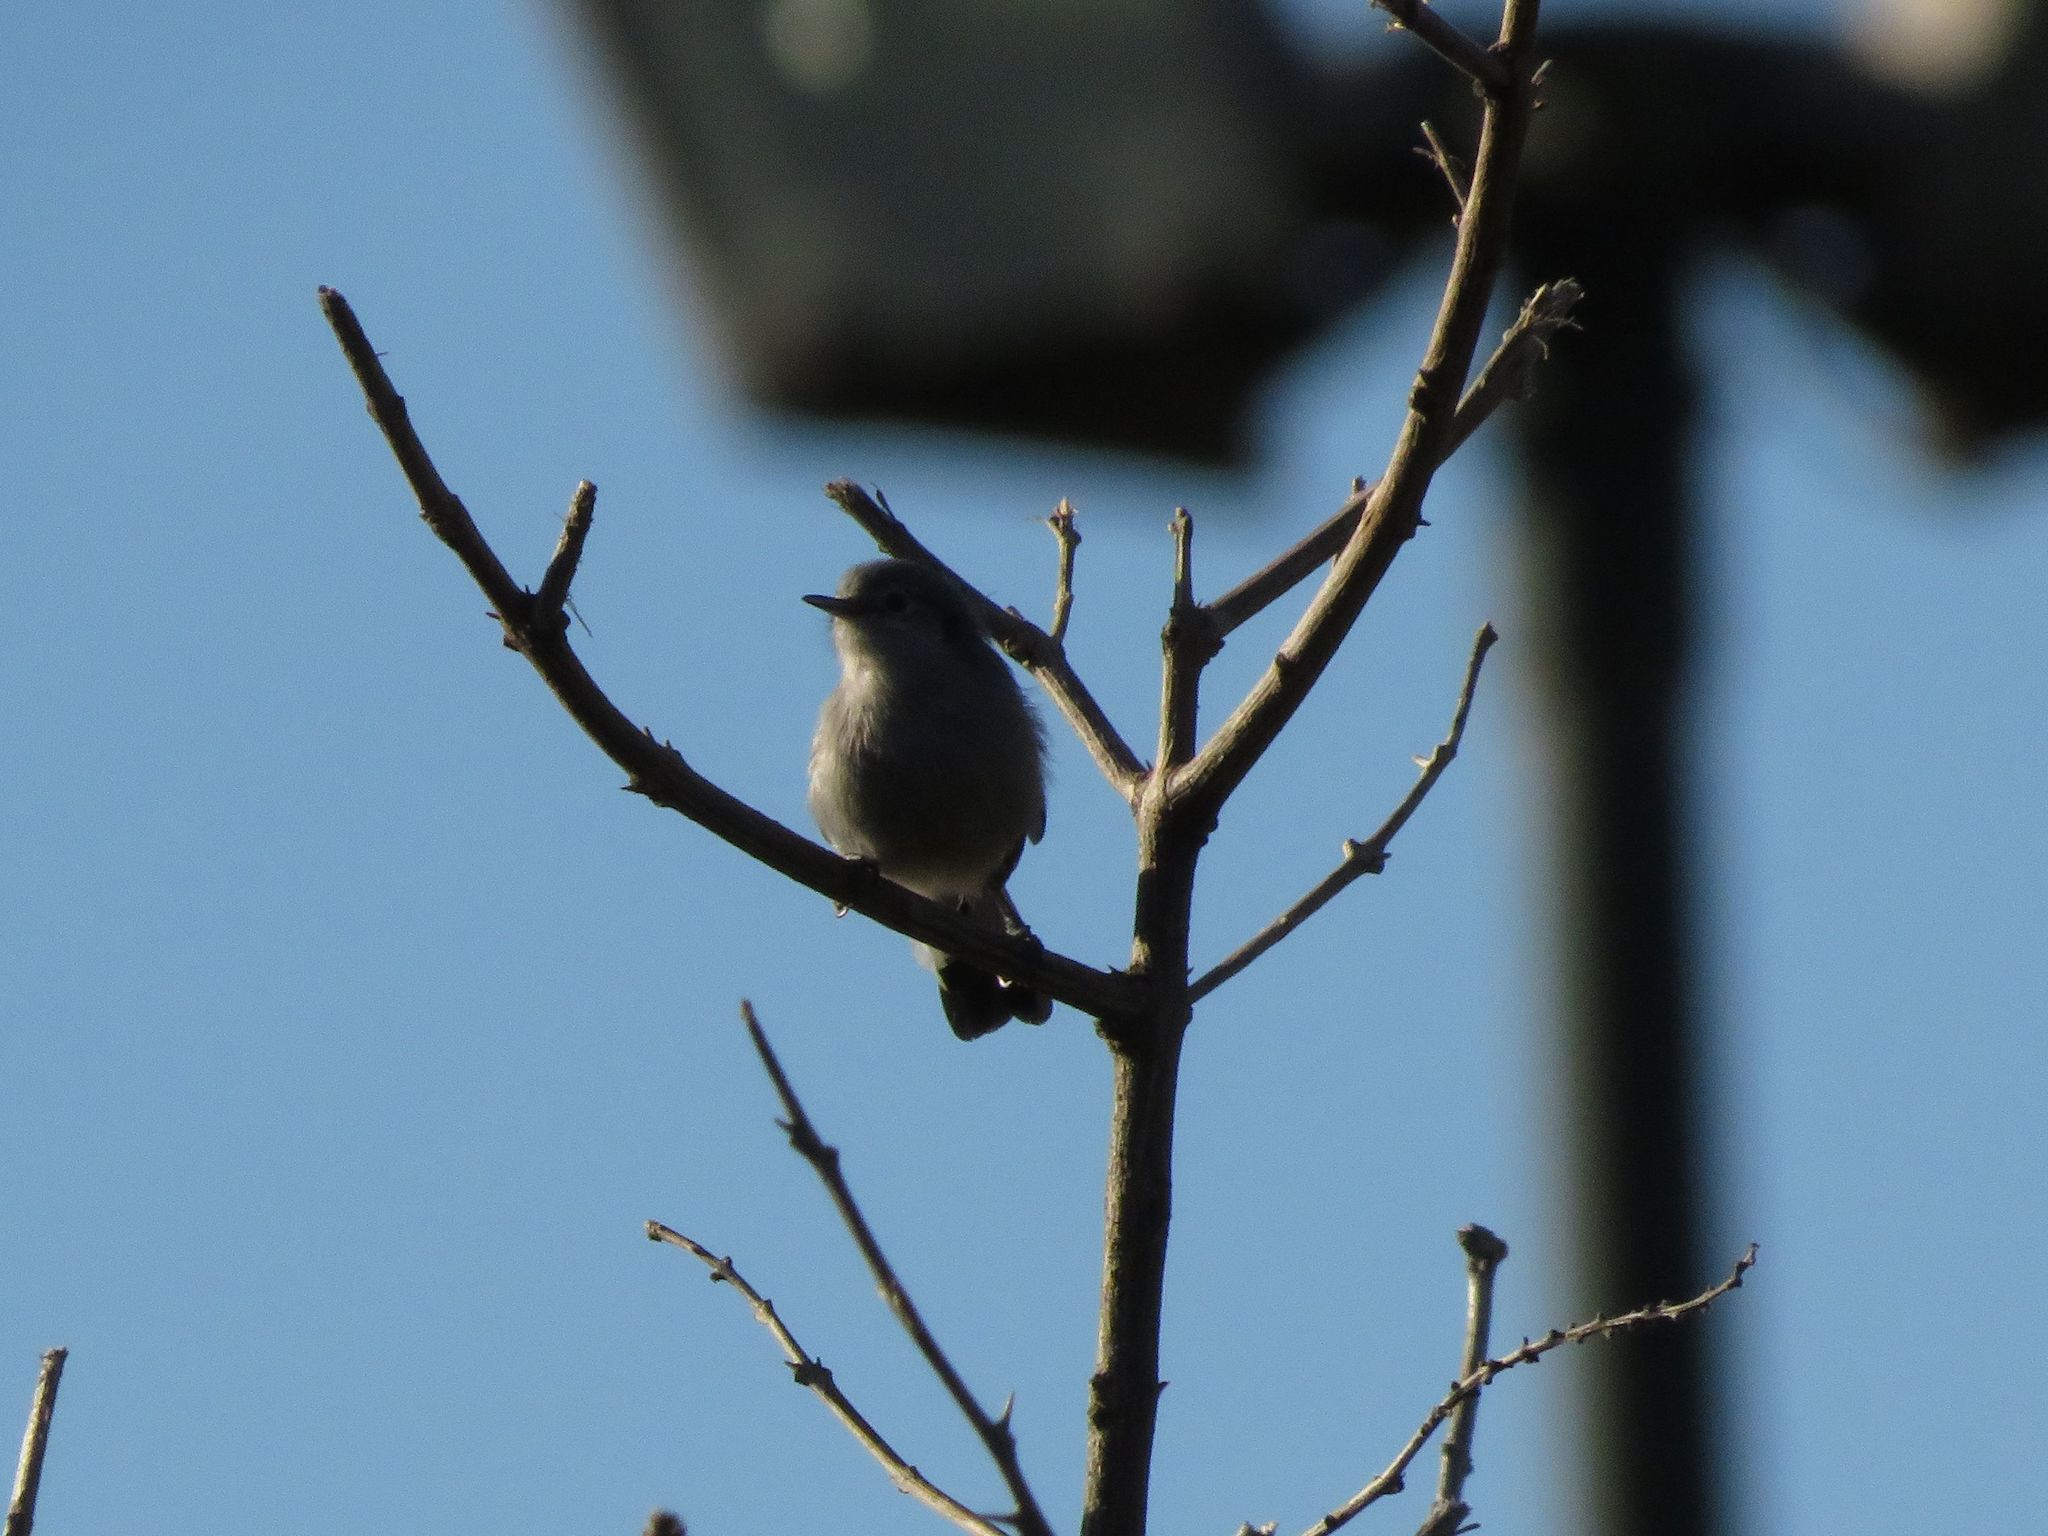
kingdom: Animalia
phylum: Chordata
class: Aves
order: Passeriformes
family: Polioptilidae
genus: Polioptila
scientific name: Polioptila dumicola
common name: Masked gnatcatcher
